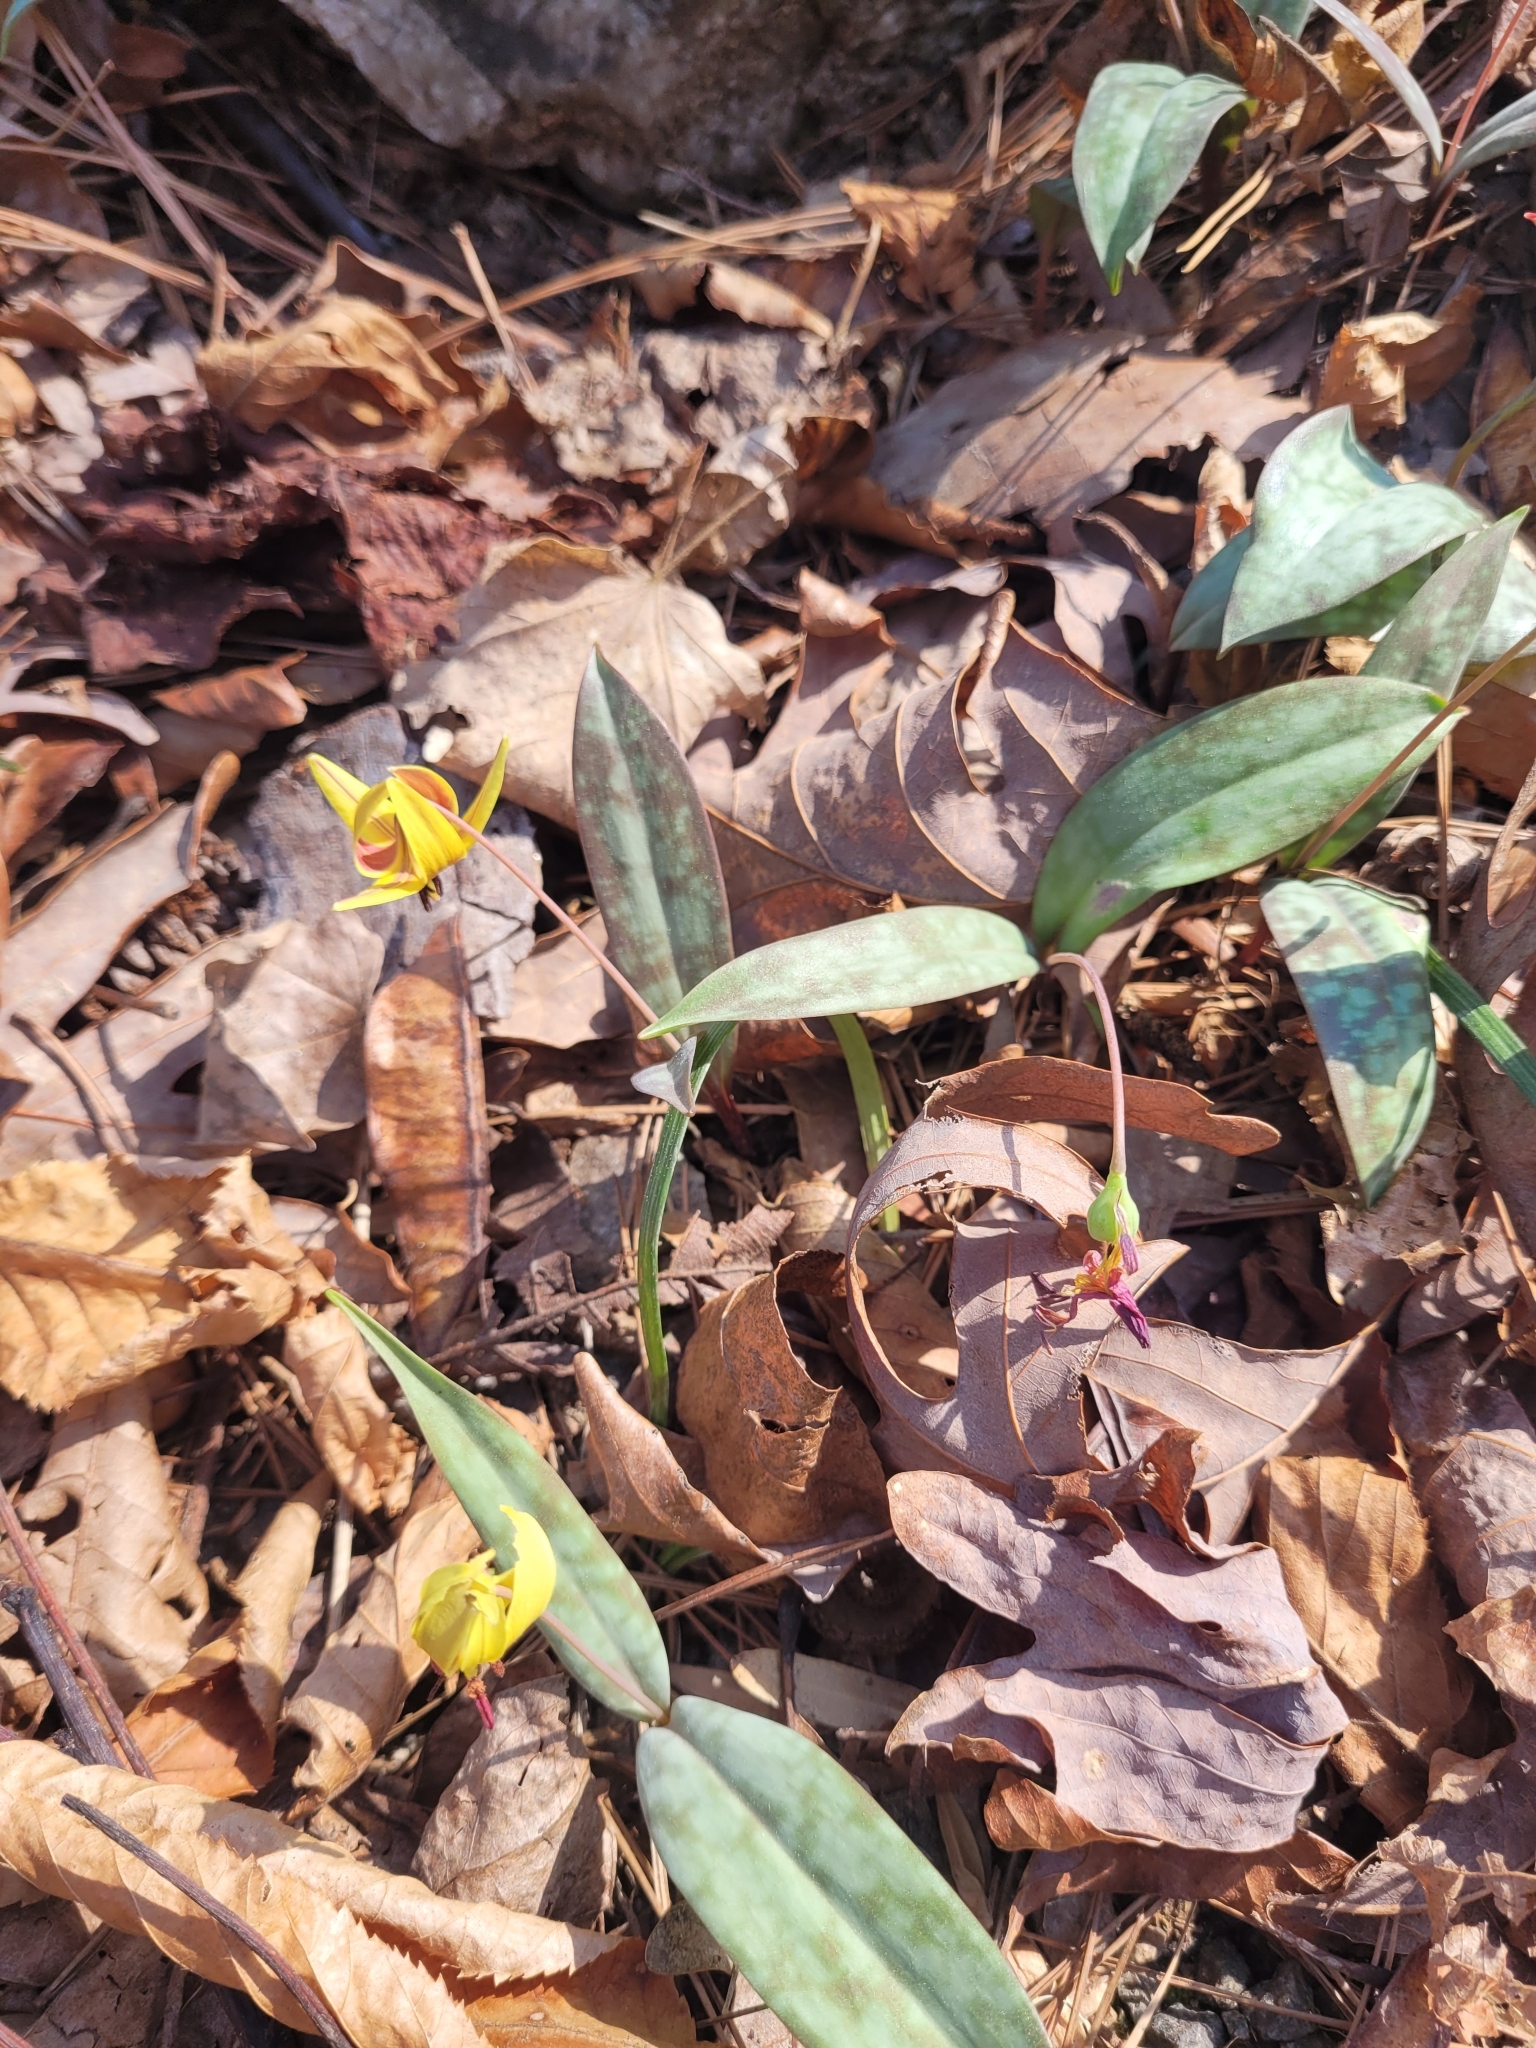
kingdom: Plantae
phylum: Tracheophyta
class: Liliopsida
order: Liliales
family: Liliaceae
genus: Erythronium
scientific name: Erythronium umbilicatum
